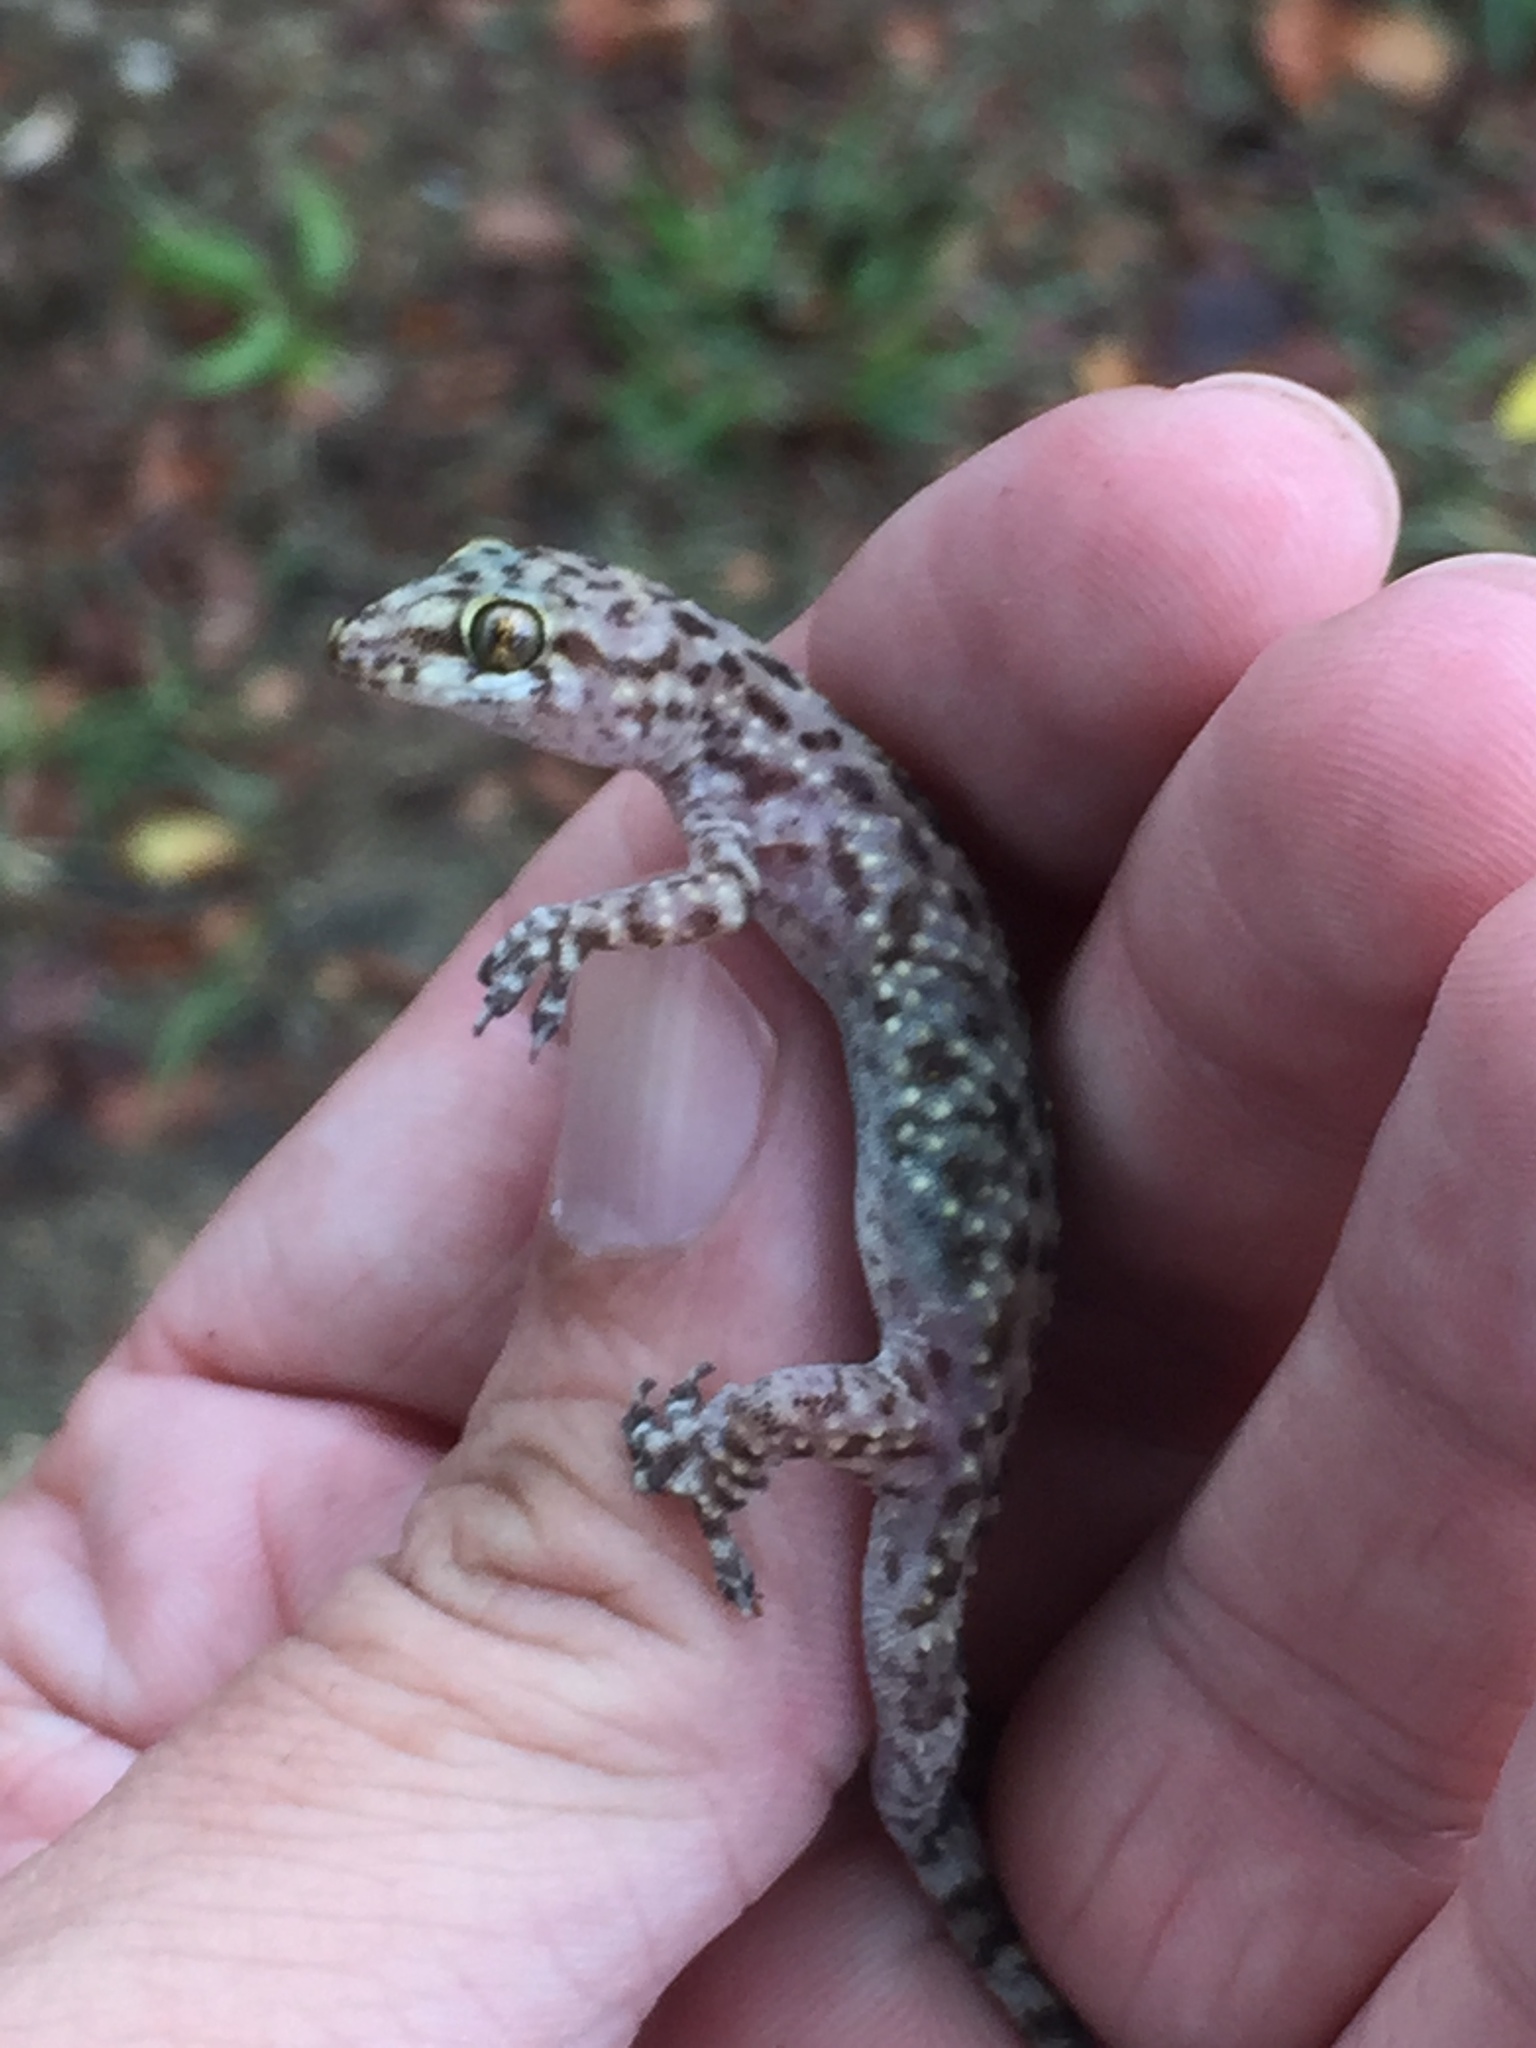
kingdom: Animalia
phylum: Chordata
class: Squamata
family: Gekkonidae
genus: Hemidactylus
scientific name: Hemidactylus turcicus
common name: Turkish gecko
